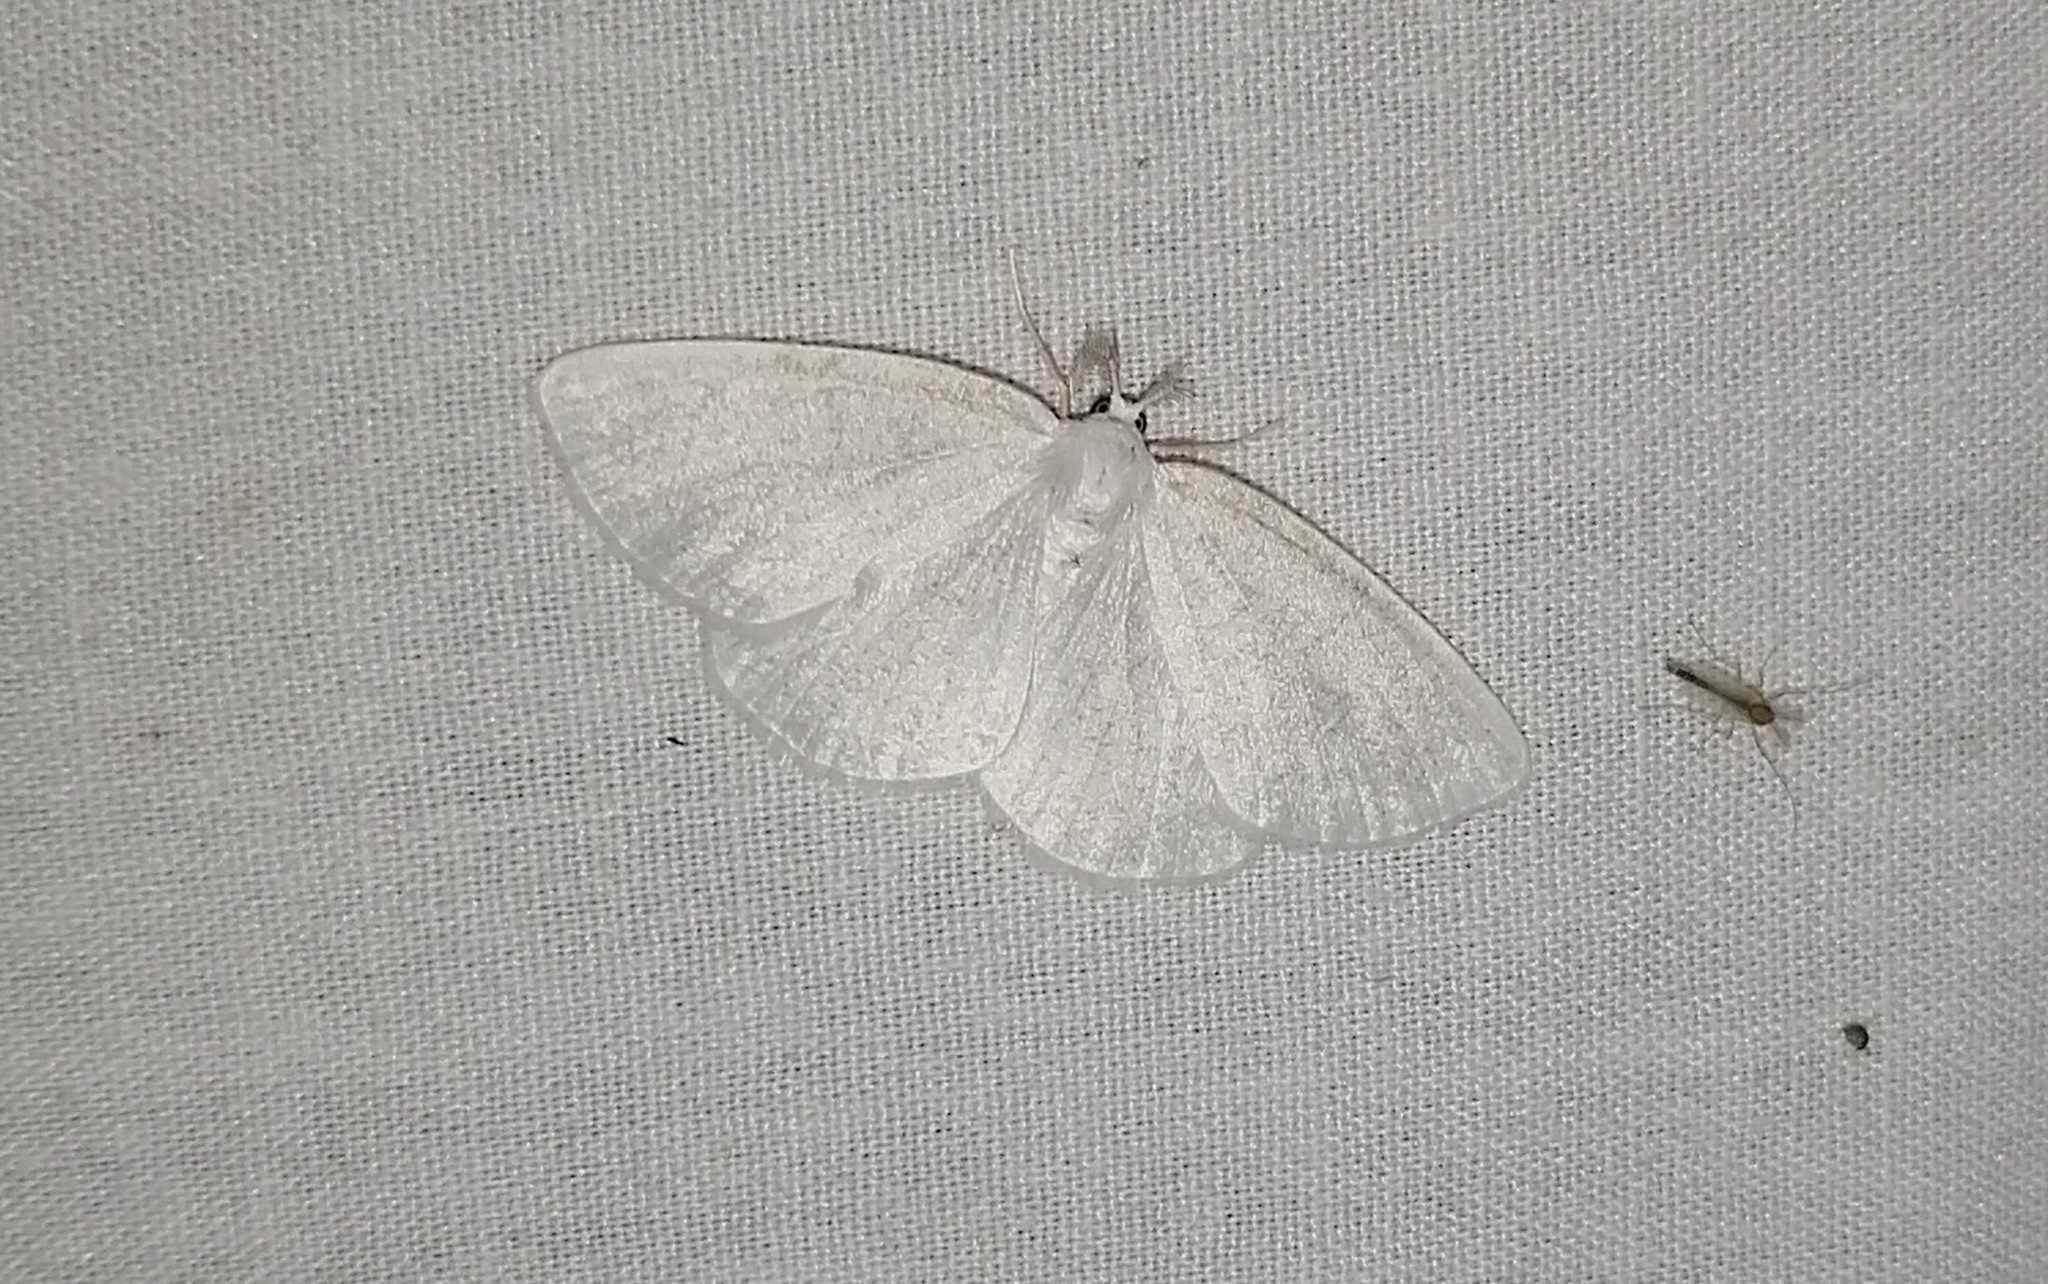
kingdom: Animalia
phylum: Arthropoda
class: Insecta
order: Lepidoptera
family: Geometridae
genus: Lomographa
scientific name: Lomographa vestaliata
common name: White spring moth
